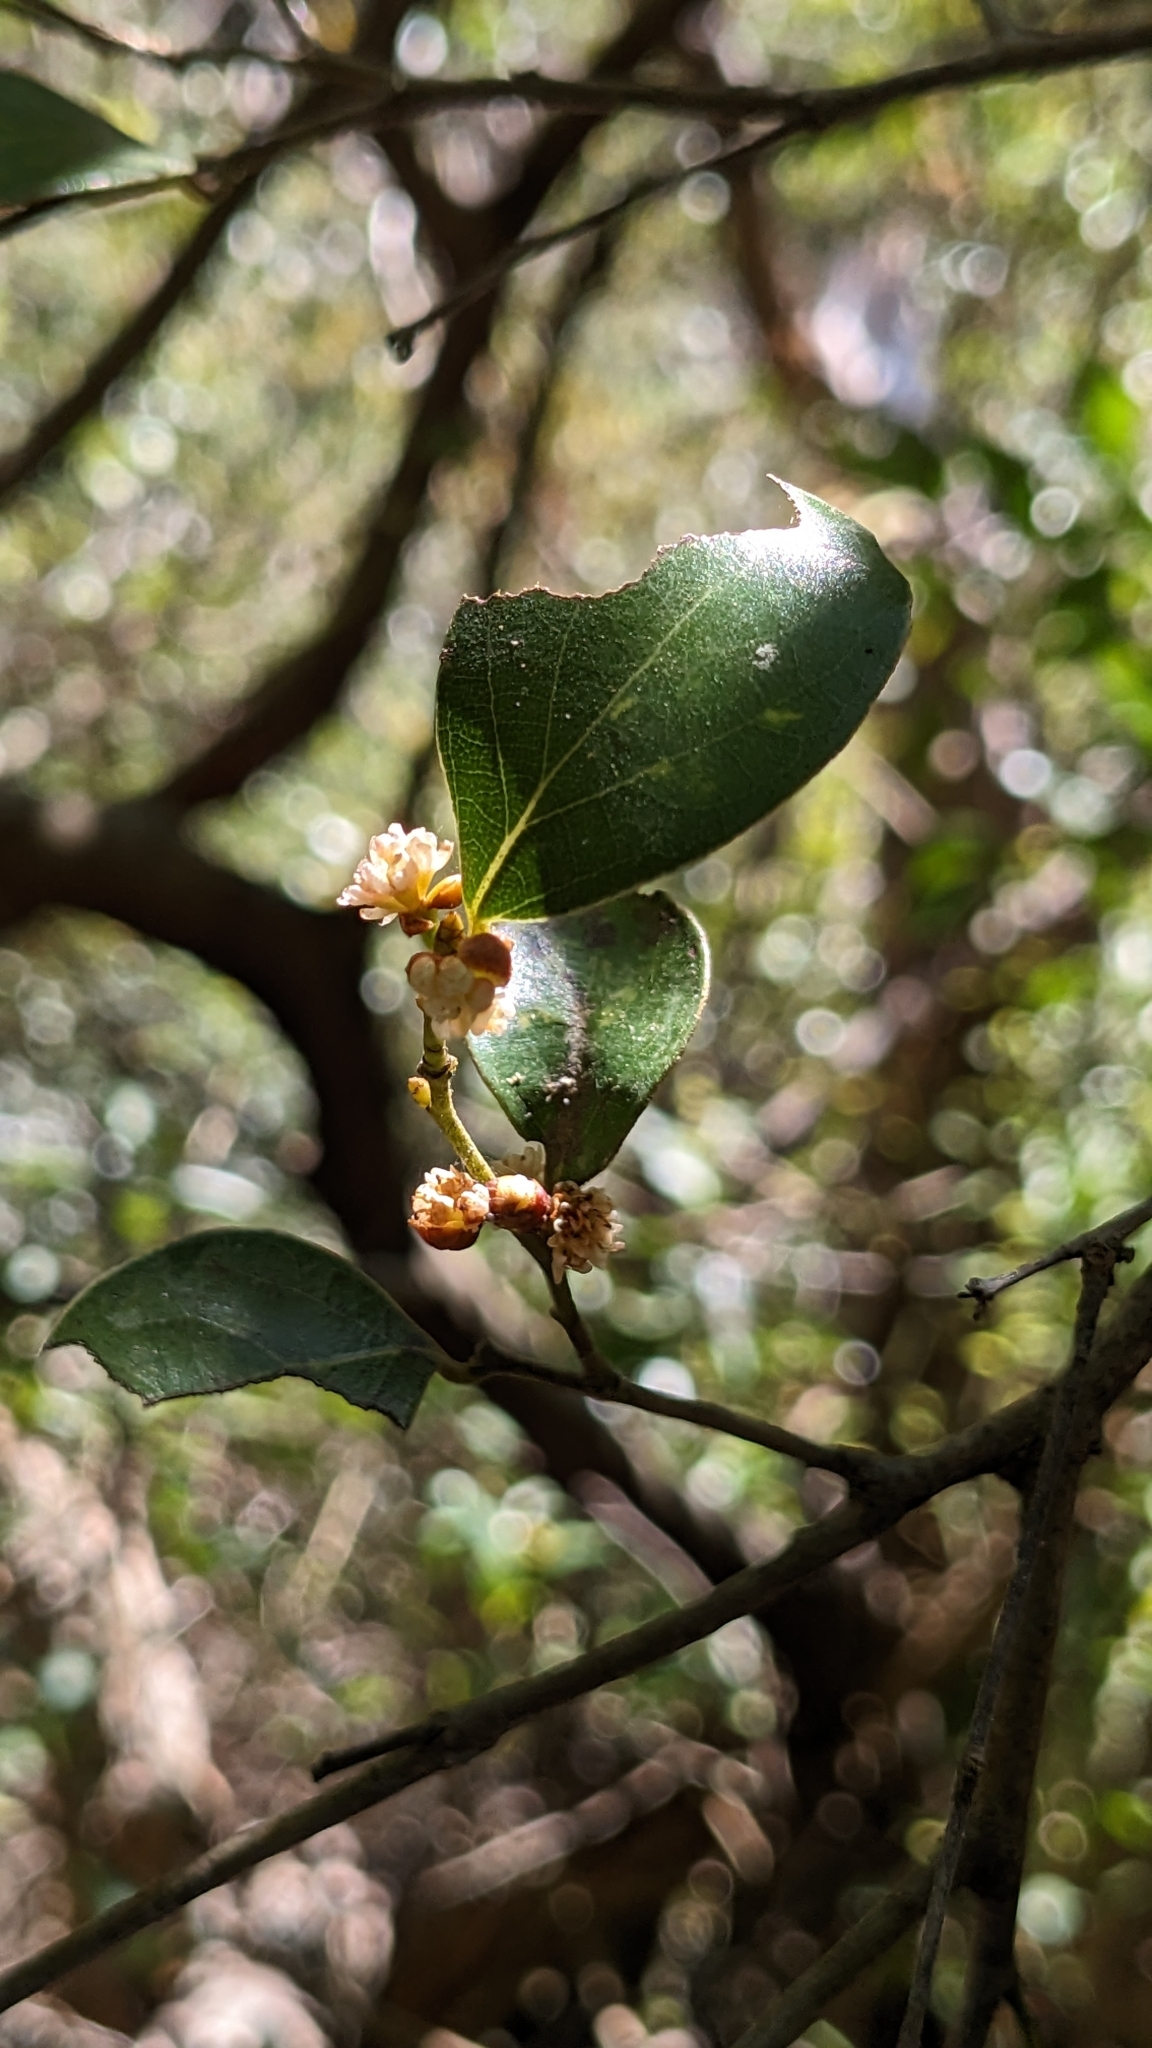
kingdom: Plantae
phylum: Tracheophyta
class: Magnoliopsida
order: Laurales
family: Lauraceae
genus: Lindera
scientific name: Lindera akoensis
